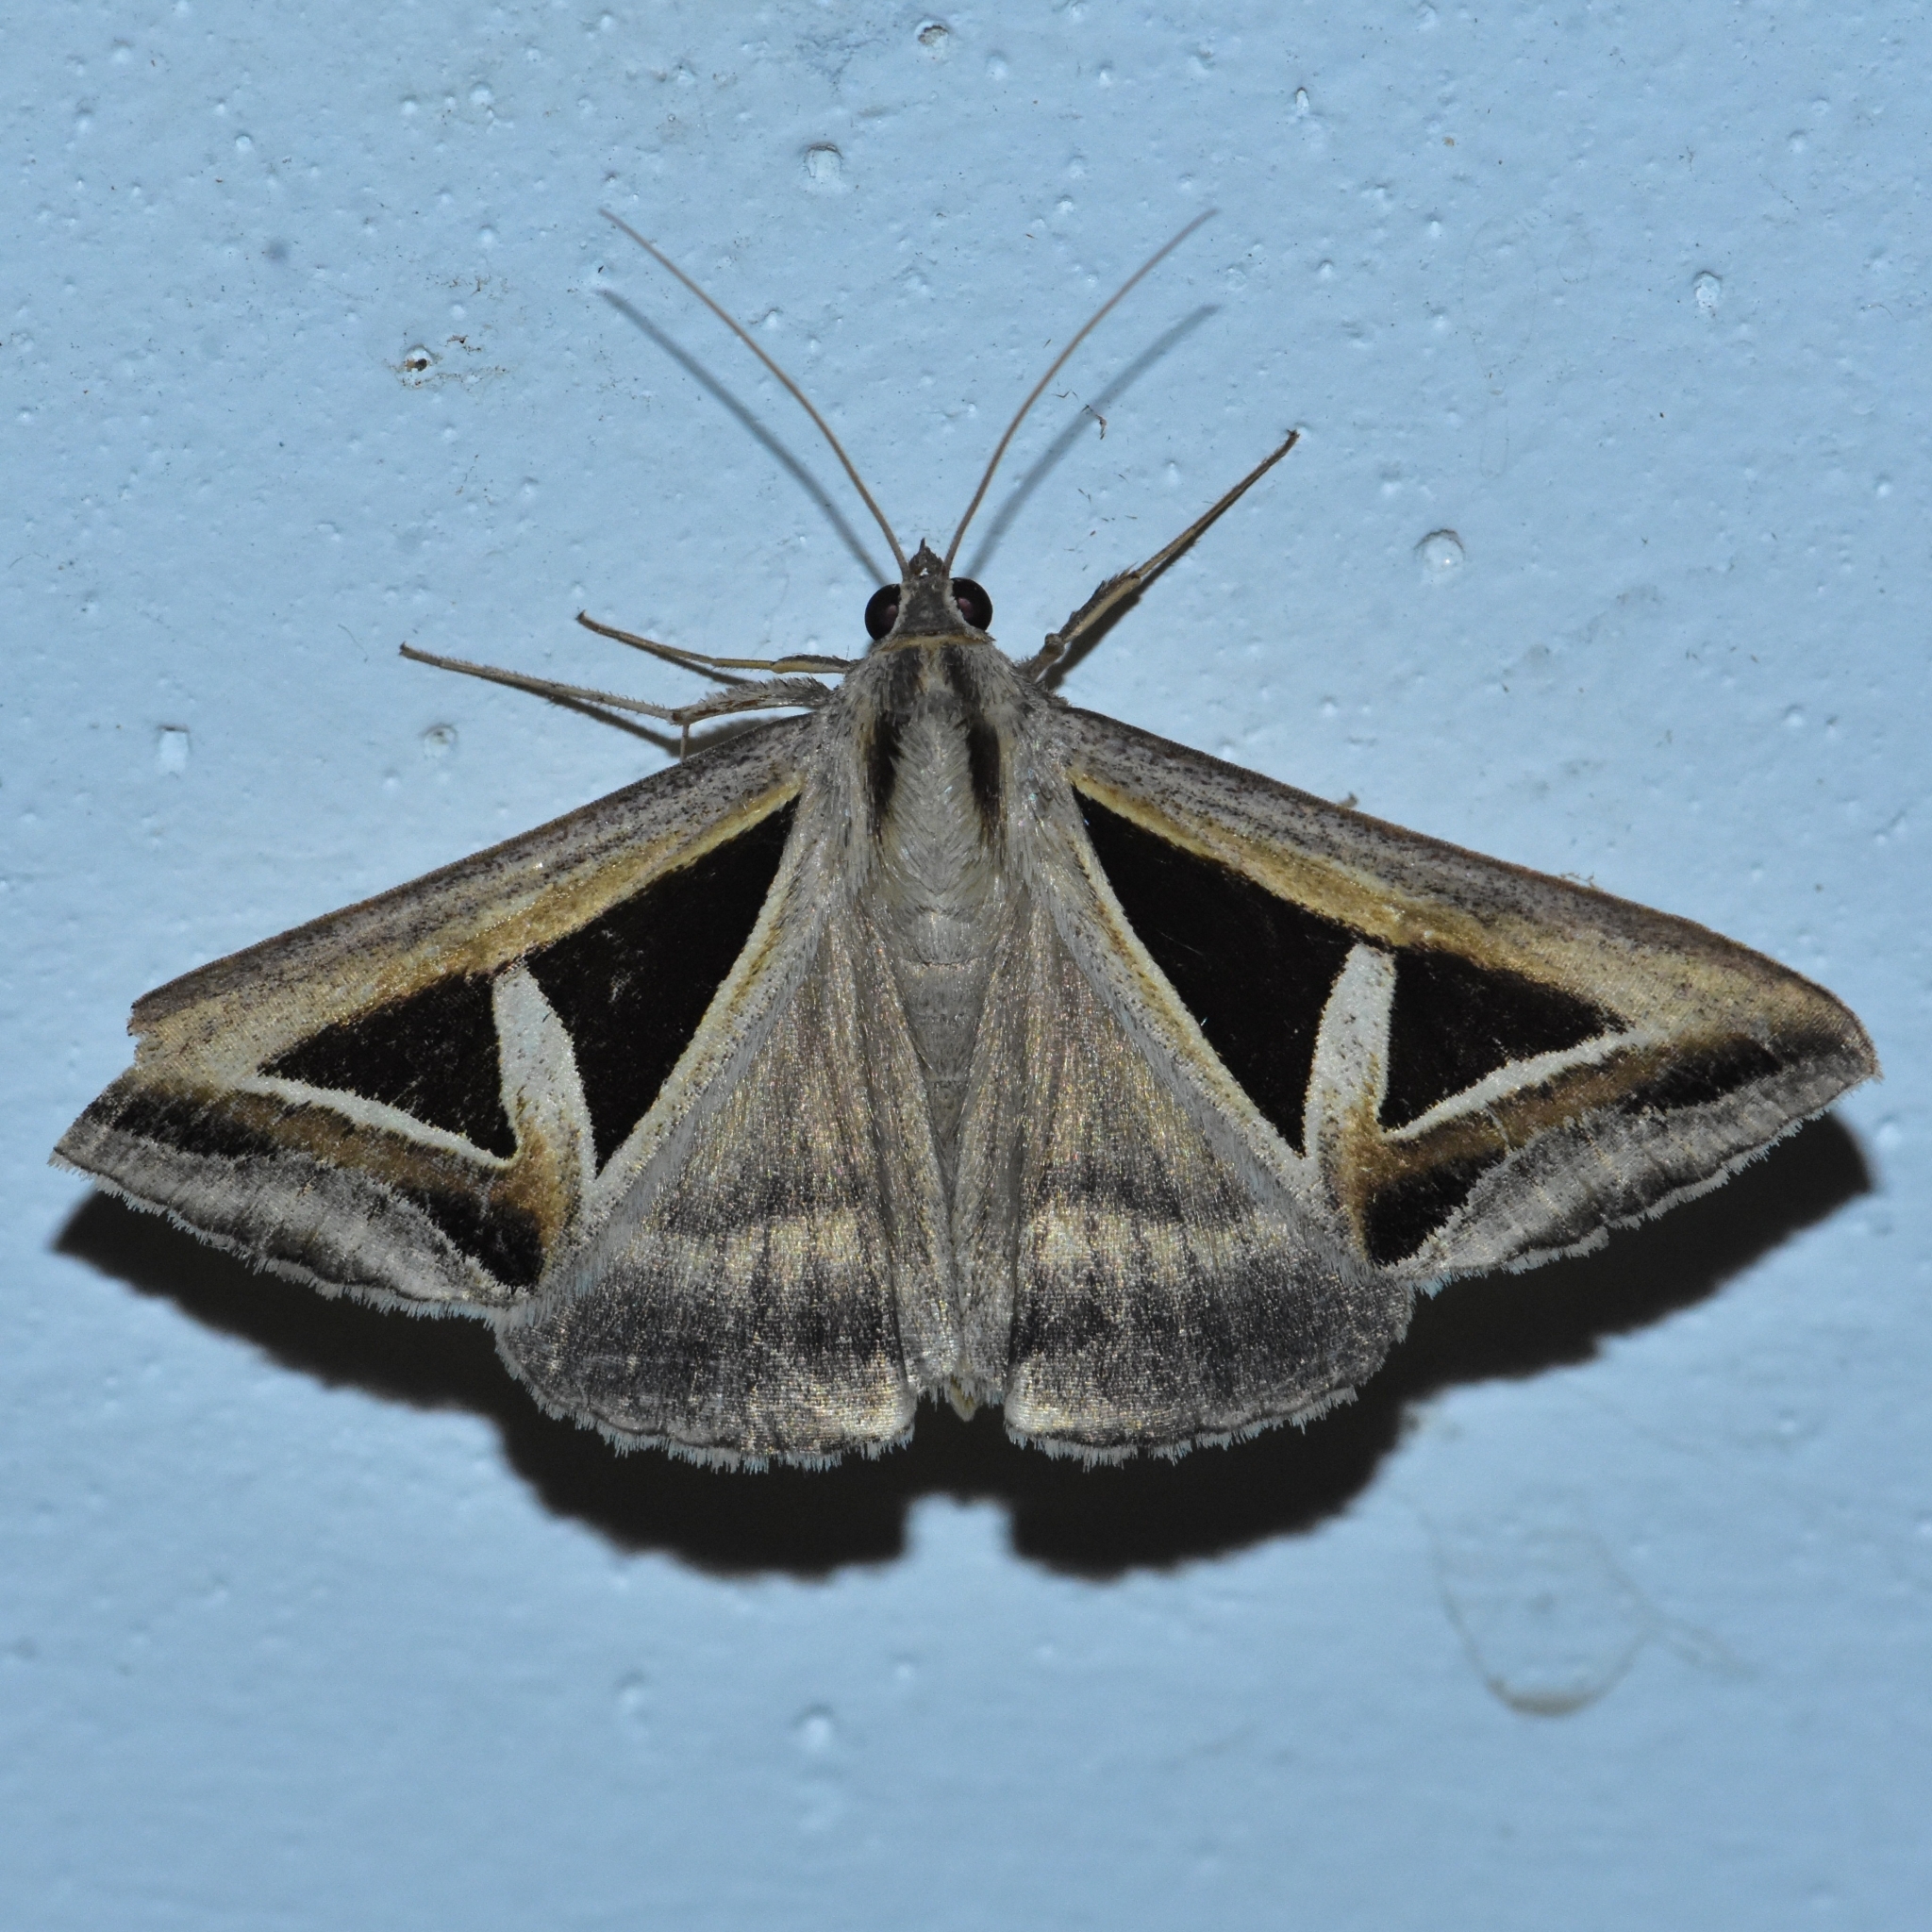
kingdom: Animalia
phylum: Arthropoda
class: Insecta
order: Lepidoptera
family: Erebidae
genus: Trigonodes
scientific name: Trigonodes hyppasia
